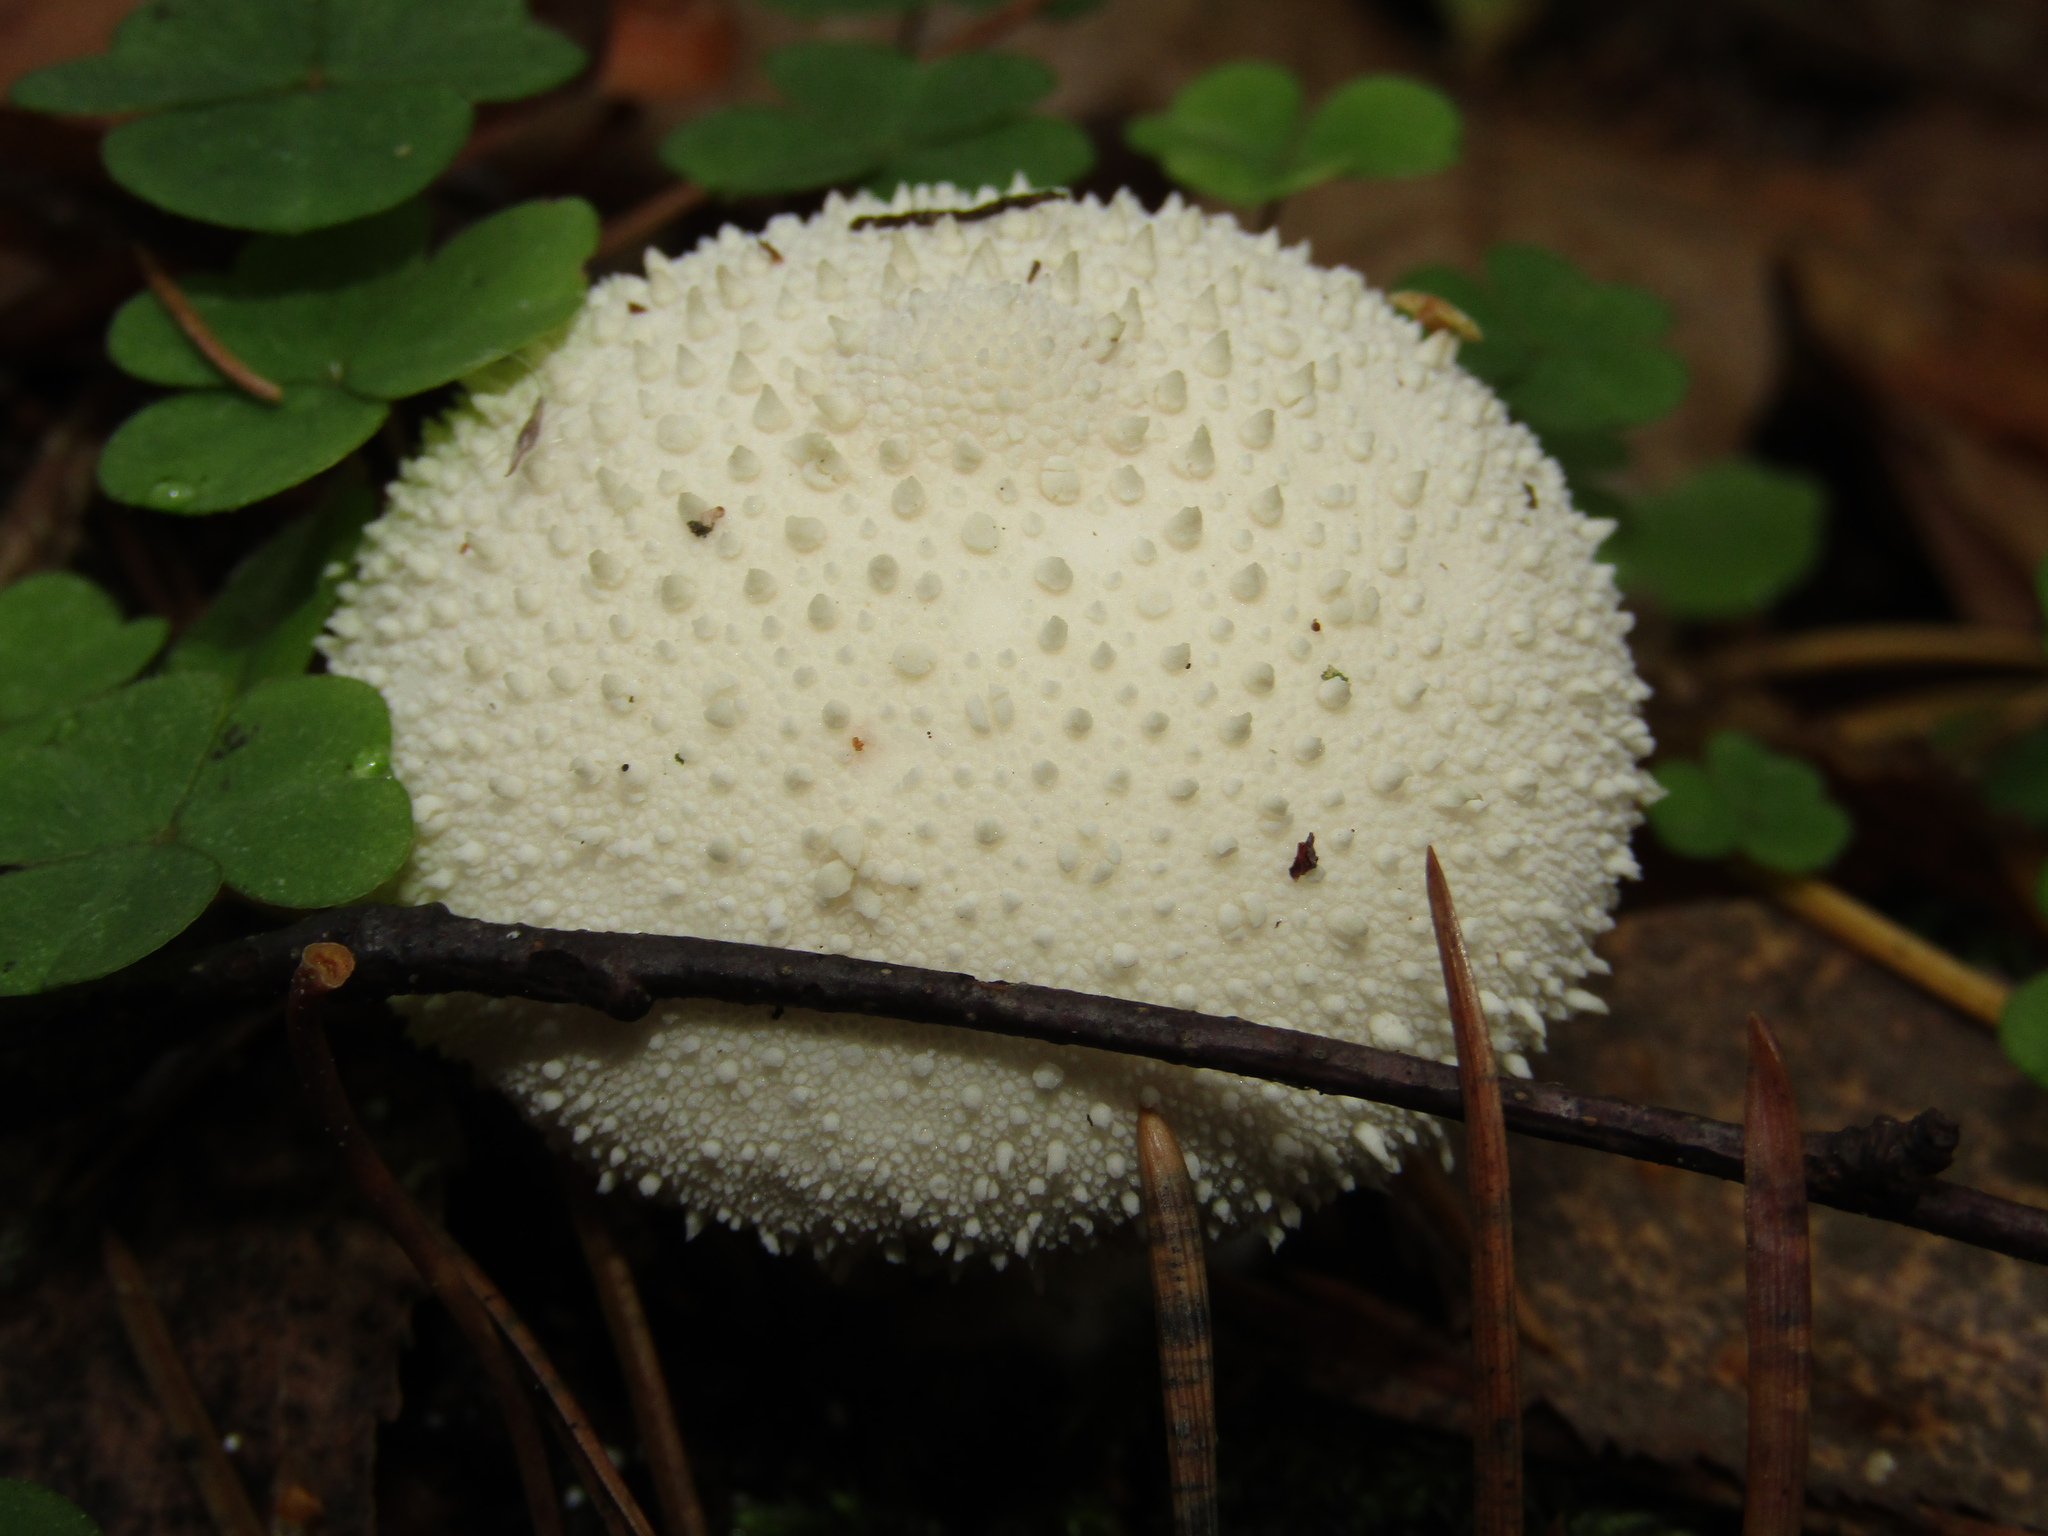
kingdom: Fungi
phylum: Basidiomycota
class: Agaricomycetes
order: Agaricales
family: Lycoperdaceae
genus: Lycoperdon
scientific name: Lycoperdon perlatum
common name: Common puffball
